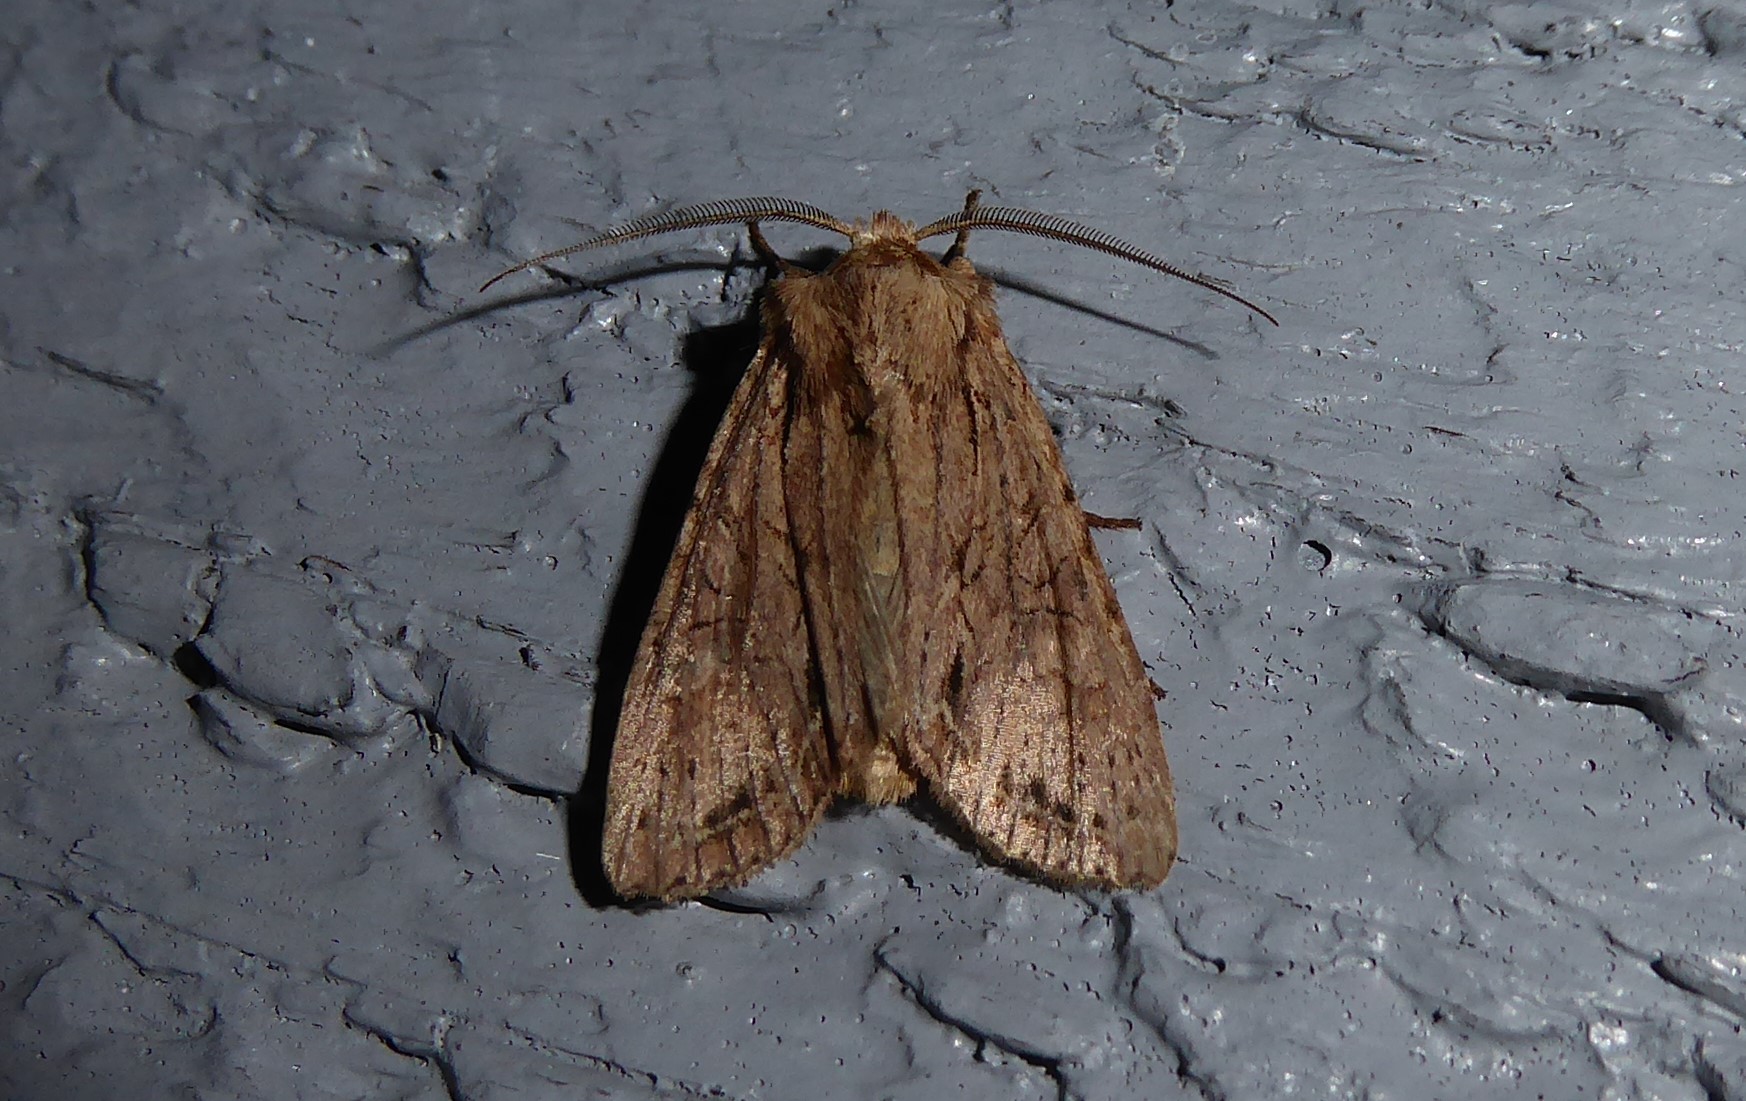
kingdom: Animalia
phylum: Arthropoda
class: Insecta
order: Lepidoptera
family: Noctuidae
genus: Ichneutica
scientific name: Ichneutica
